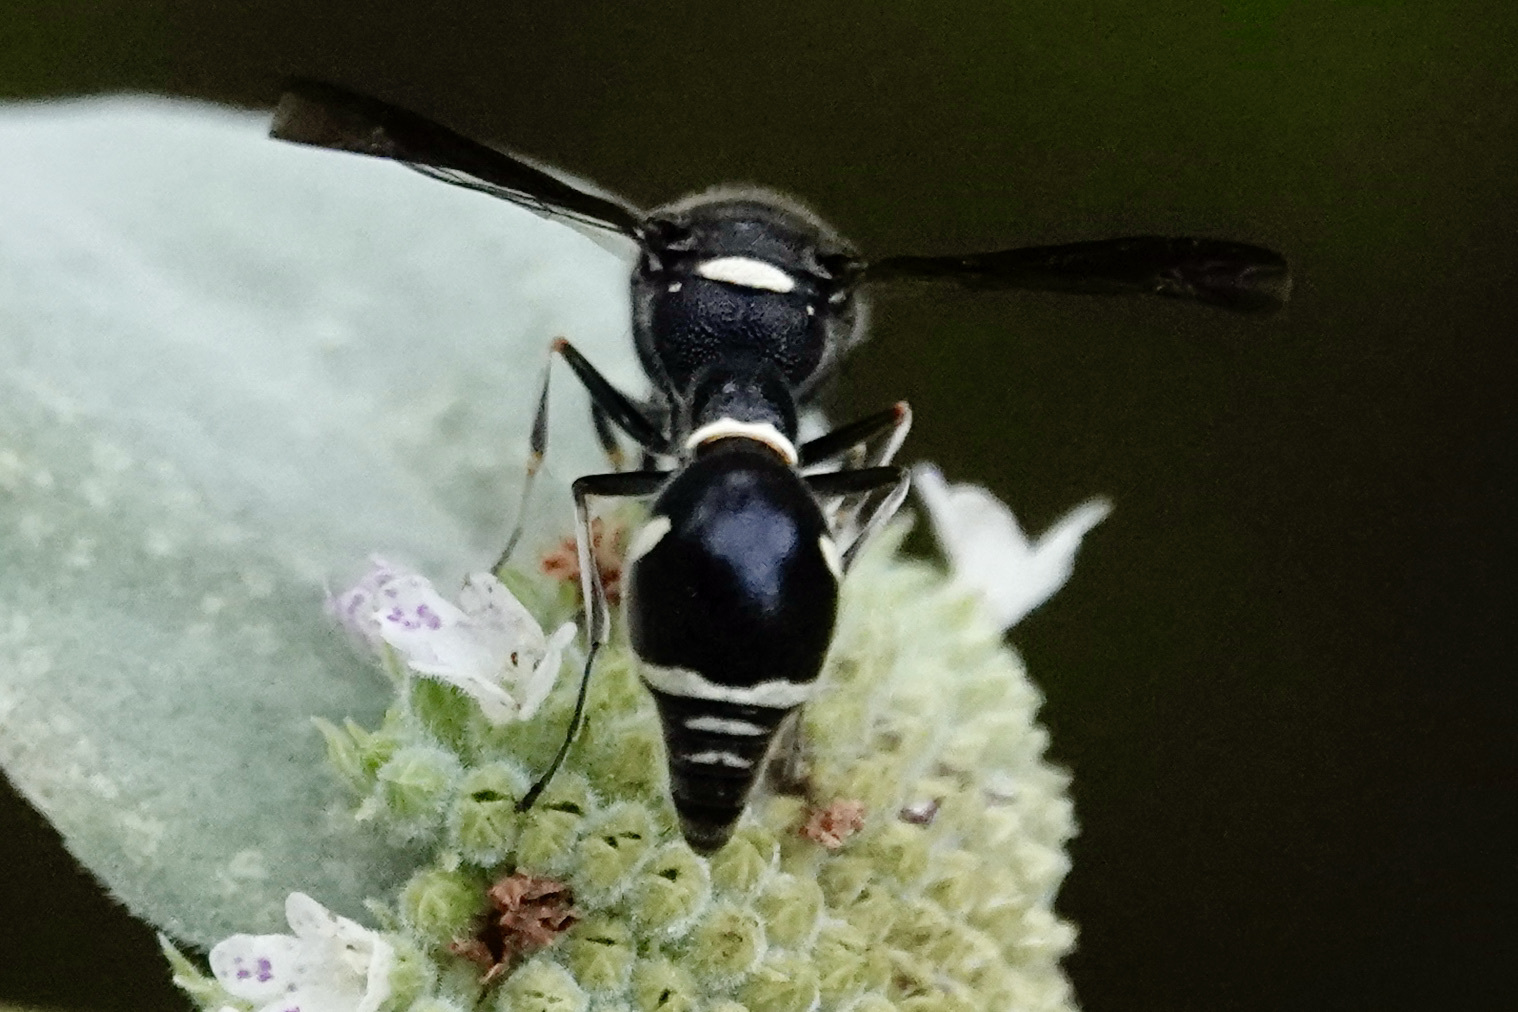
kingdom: Animalia
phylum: Arthropoda
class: Insecta
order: Hymenoptera
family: Vespidae
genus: Eumenes
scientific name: Eumenes fraternus
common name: Fraternal potter wasp
